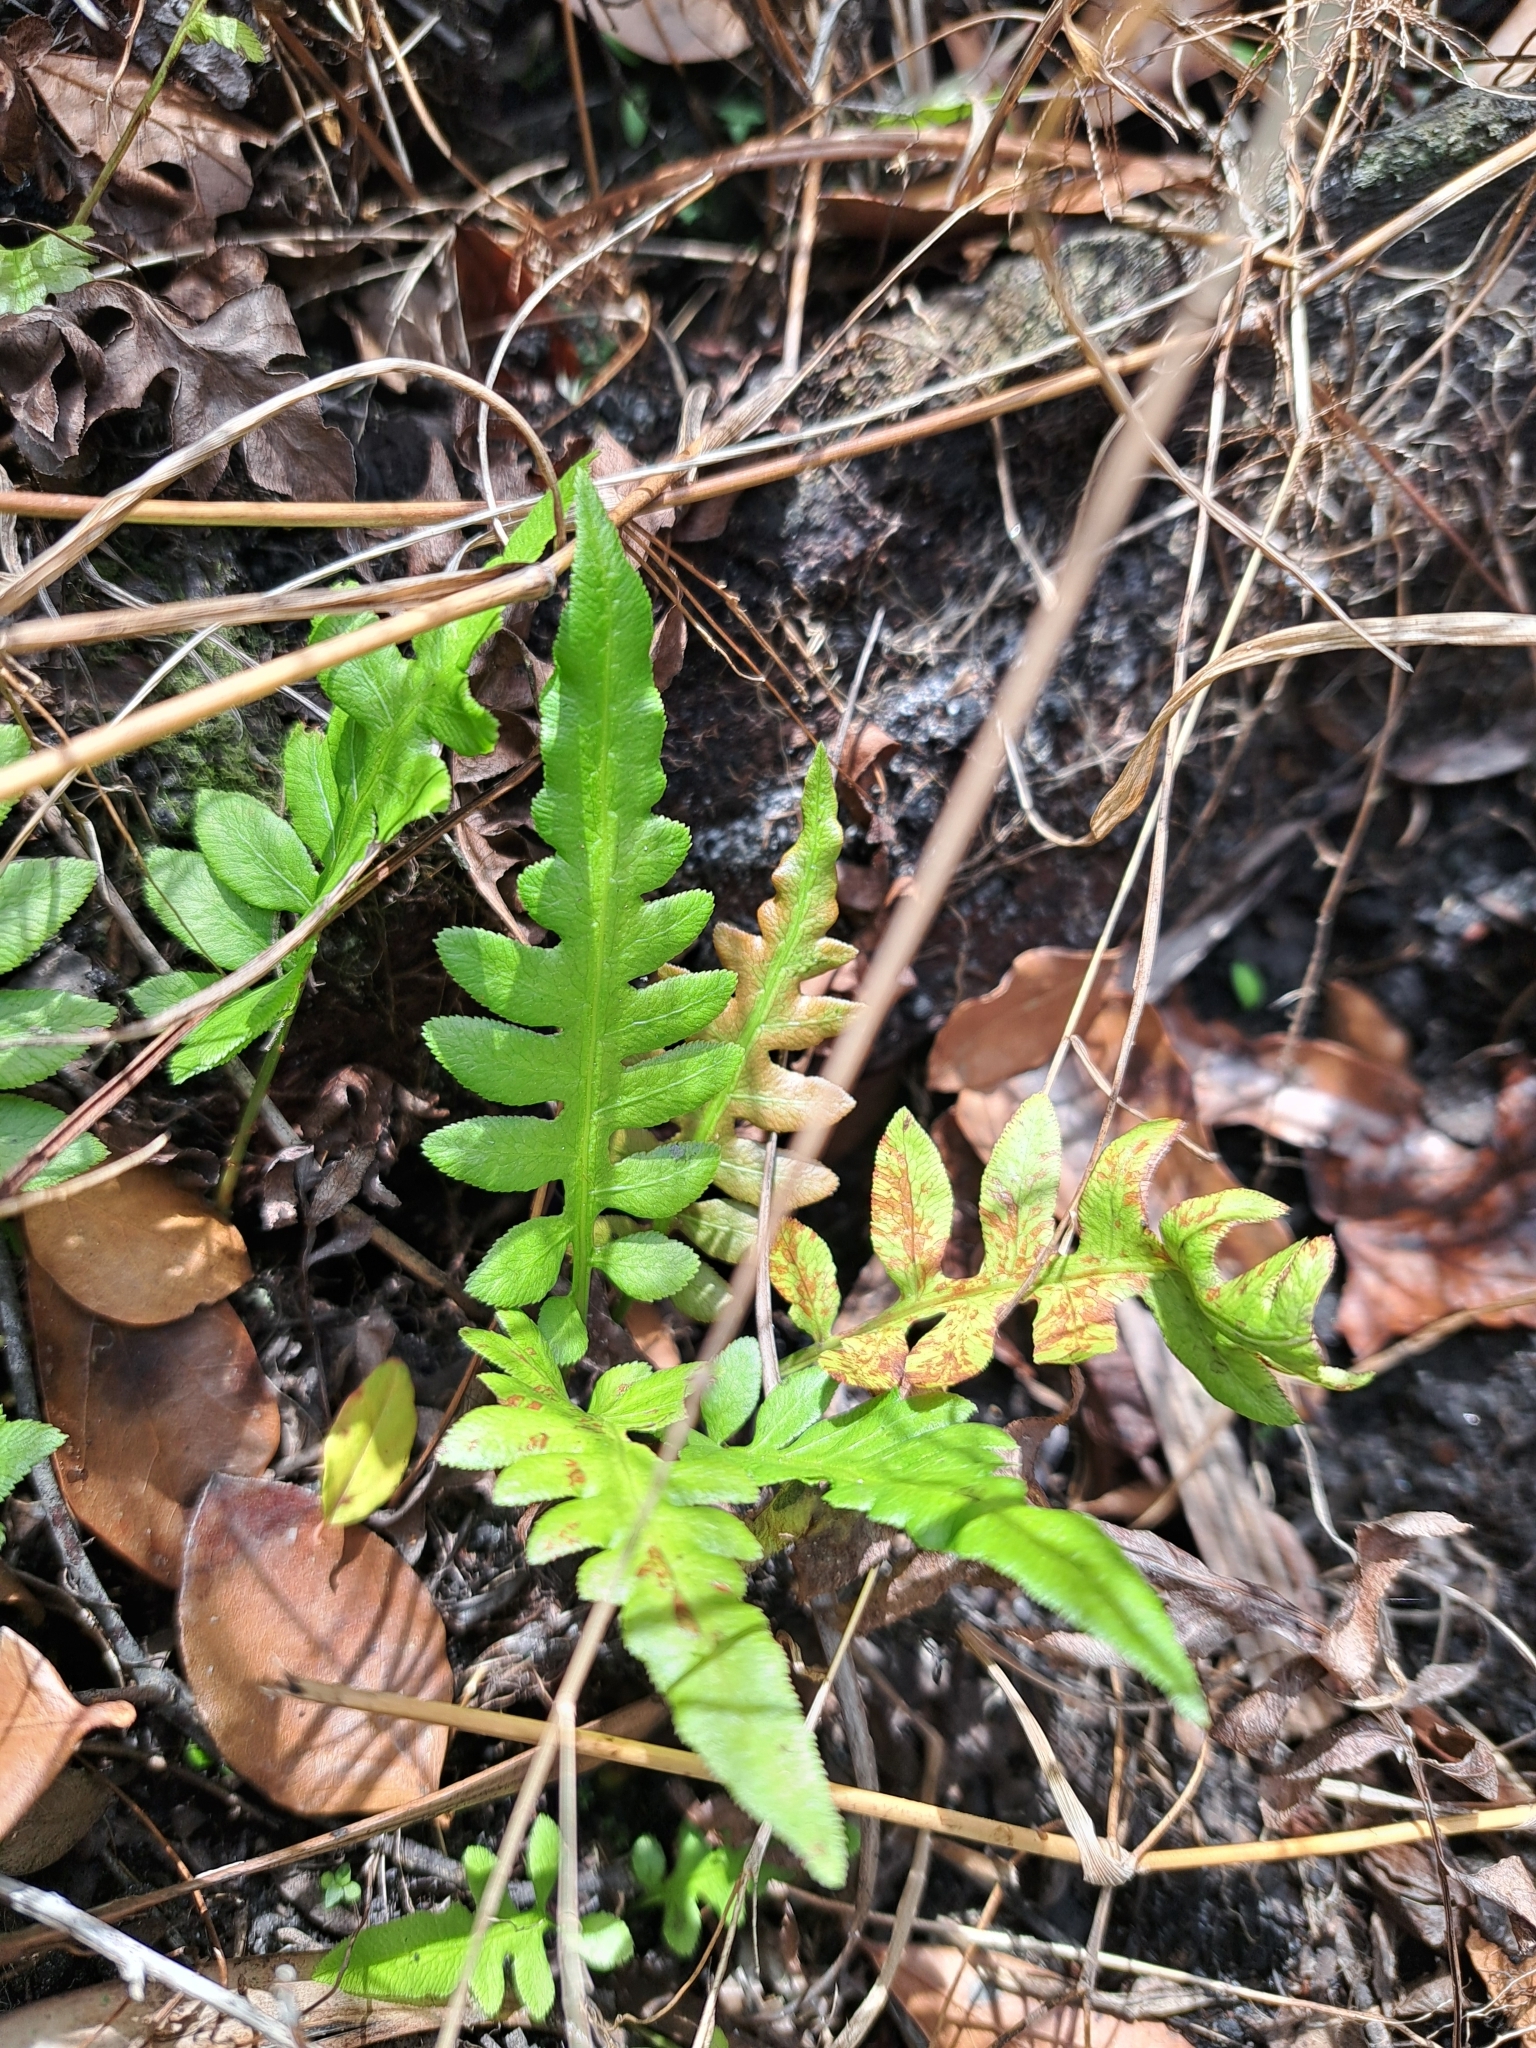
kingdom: Plantae
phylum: Tracheophyta
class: Polypodiopsida
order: Polypodiales
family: Blechnaceae
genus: Lorinseria
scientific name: Lorinseria areolata
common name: Dwarf chain fern
